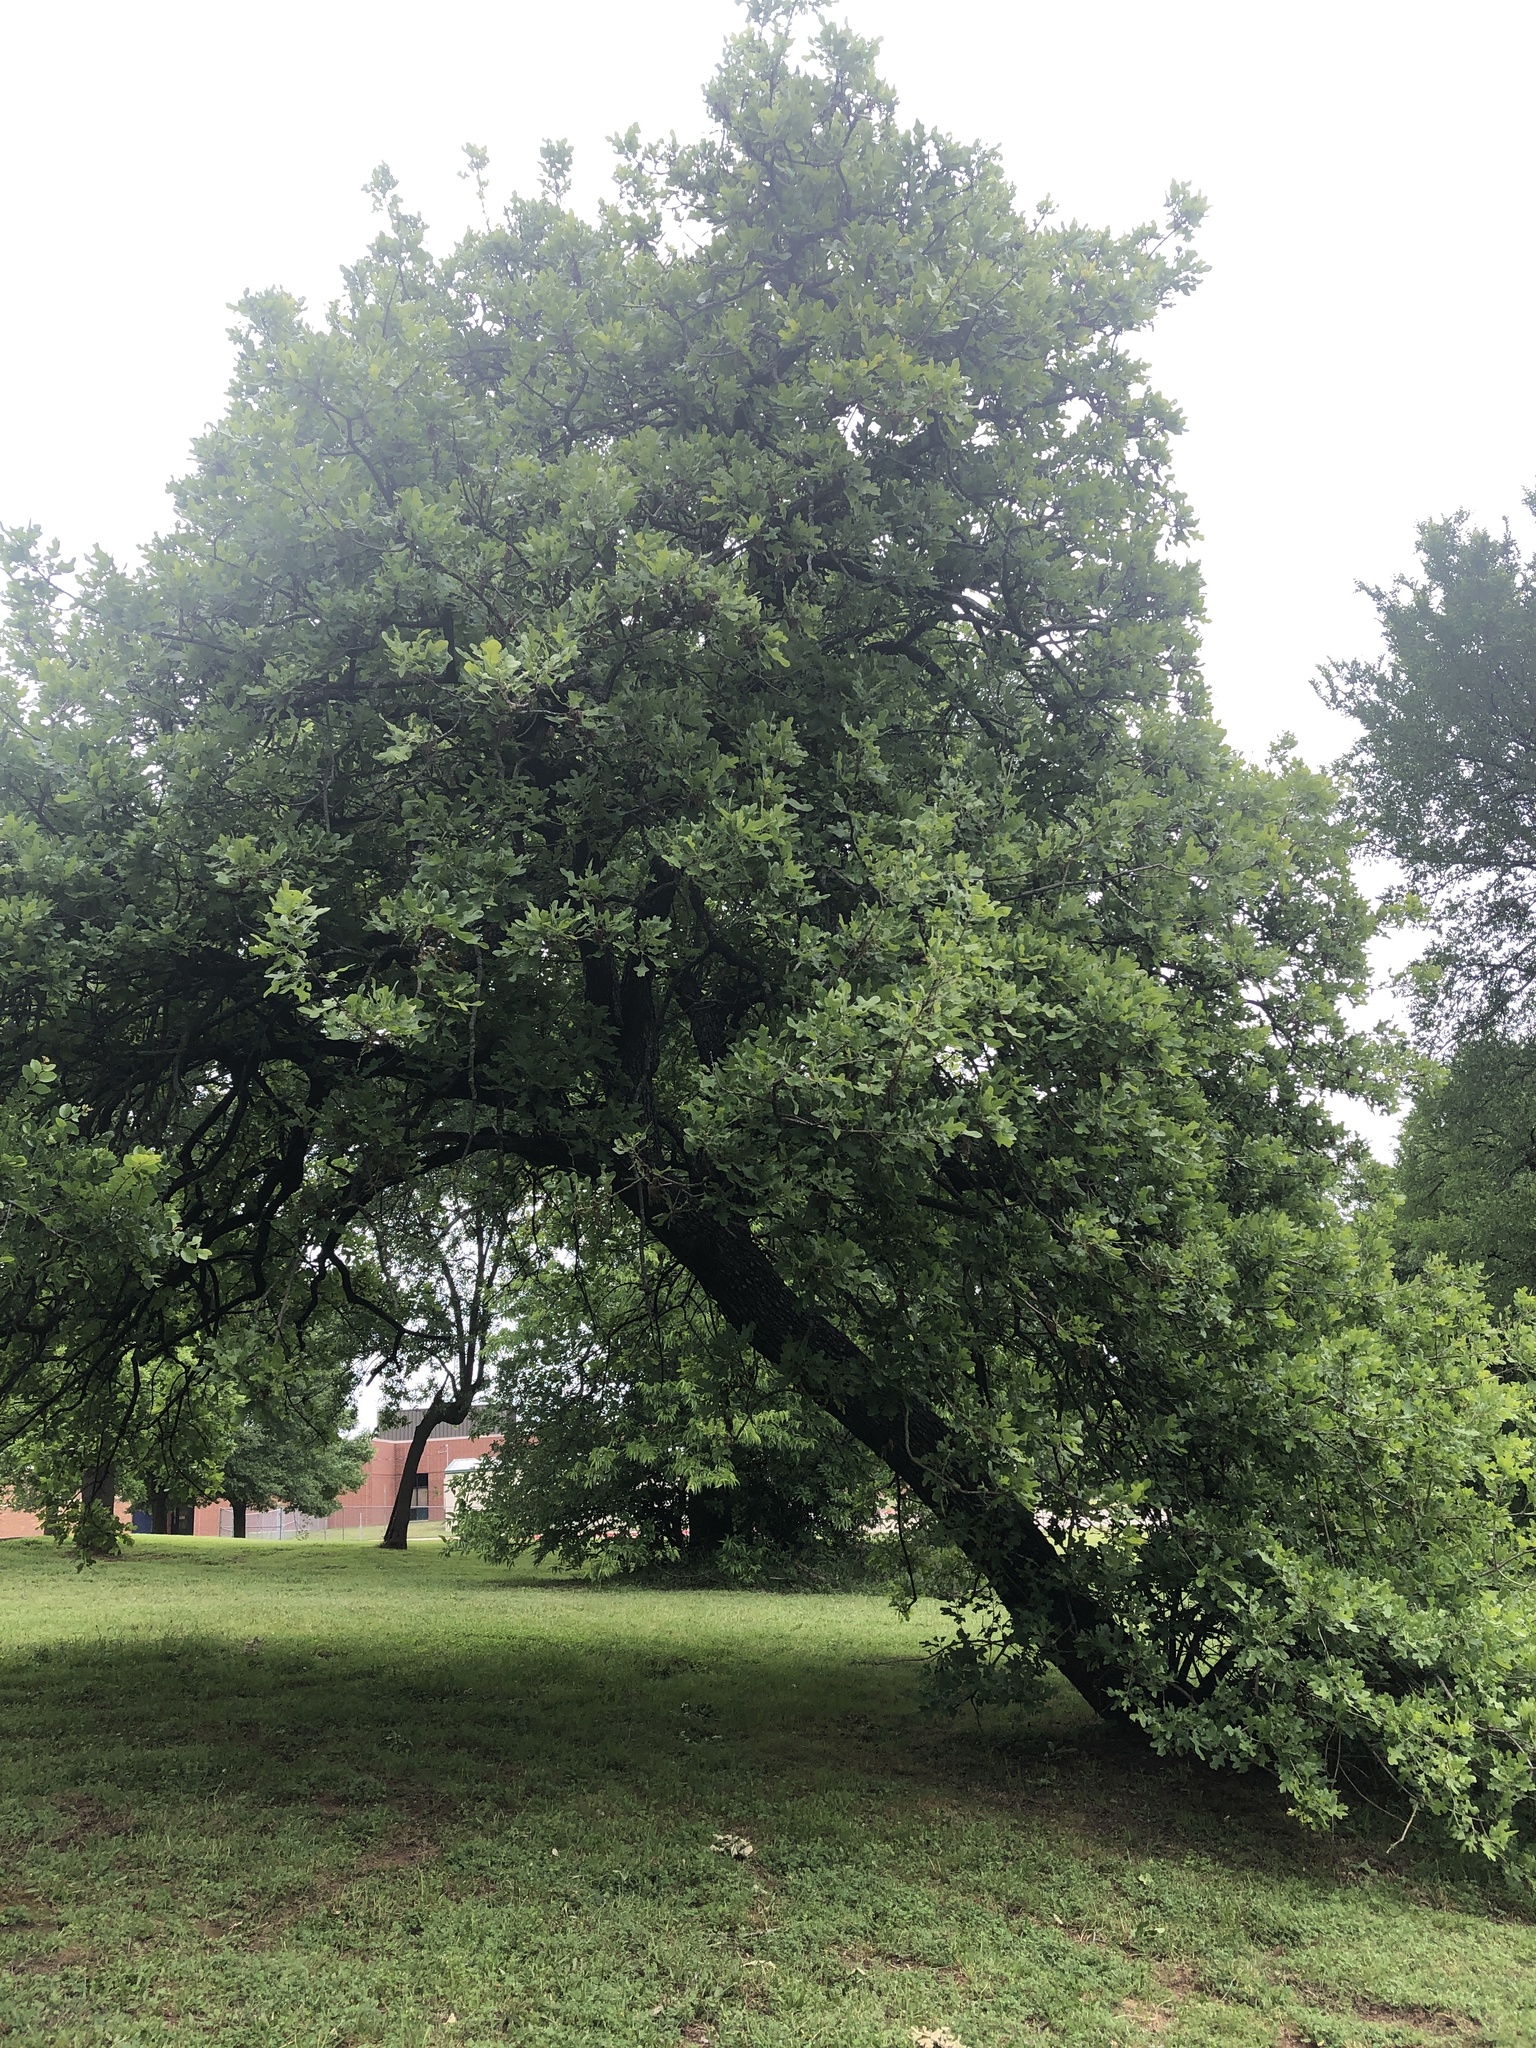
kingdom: Plantae
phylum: Tracheophyta
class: Magnoliopsida
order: Fagales
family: Fagaceae
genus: Quercus
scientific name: Quercus stellata
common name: Post oak
